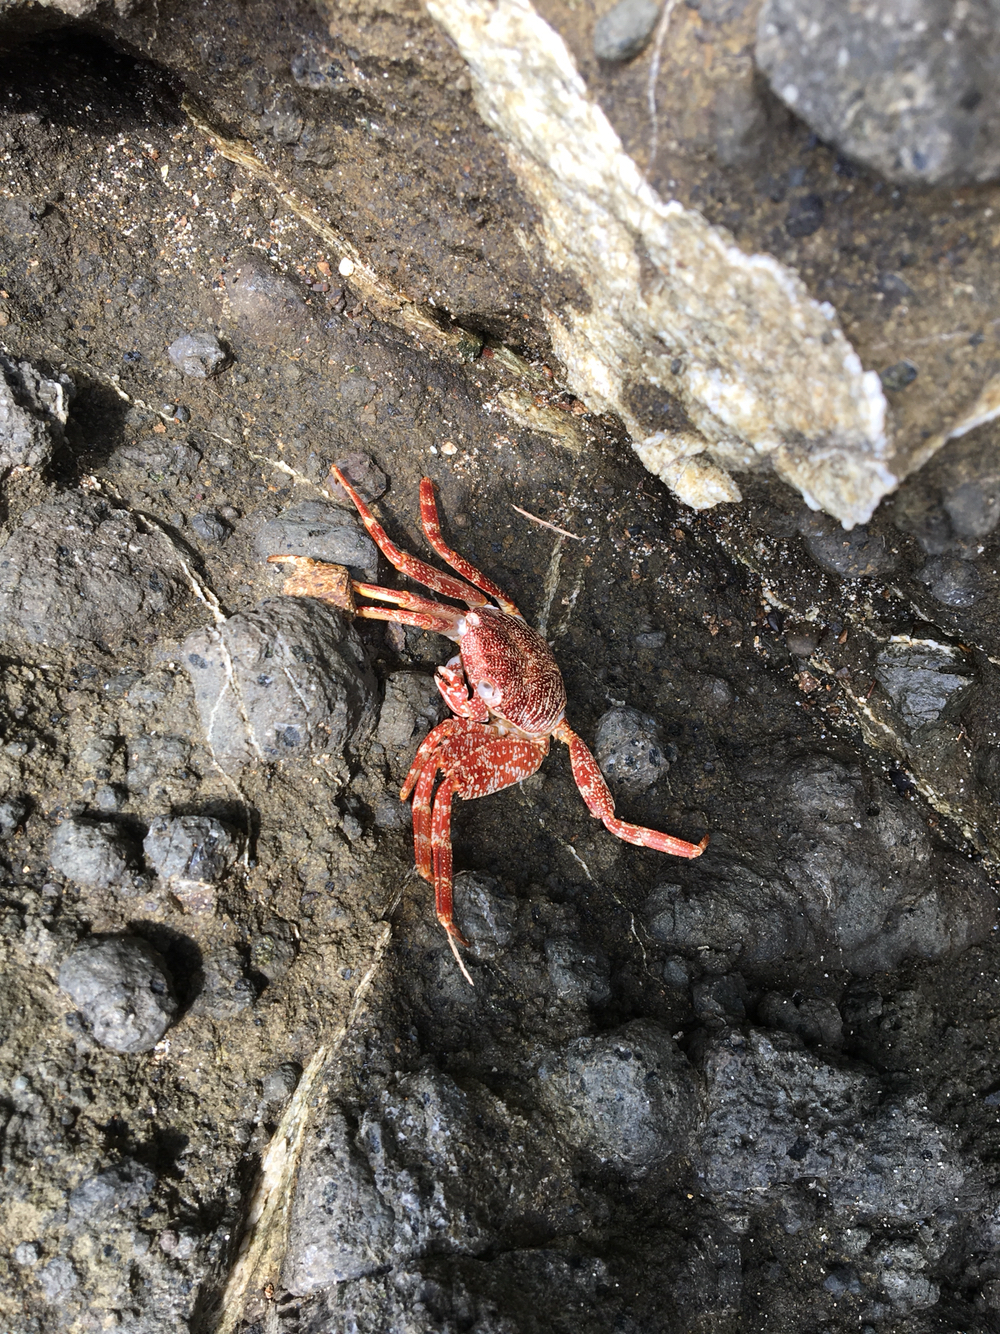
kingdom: Animalia
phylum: Arthropoda
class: Malacostraca
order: Decapoda
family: Grapsidae
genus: Grapsus
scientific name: Grapsus grapsus
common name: Sally lightfoot
